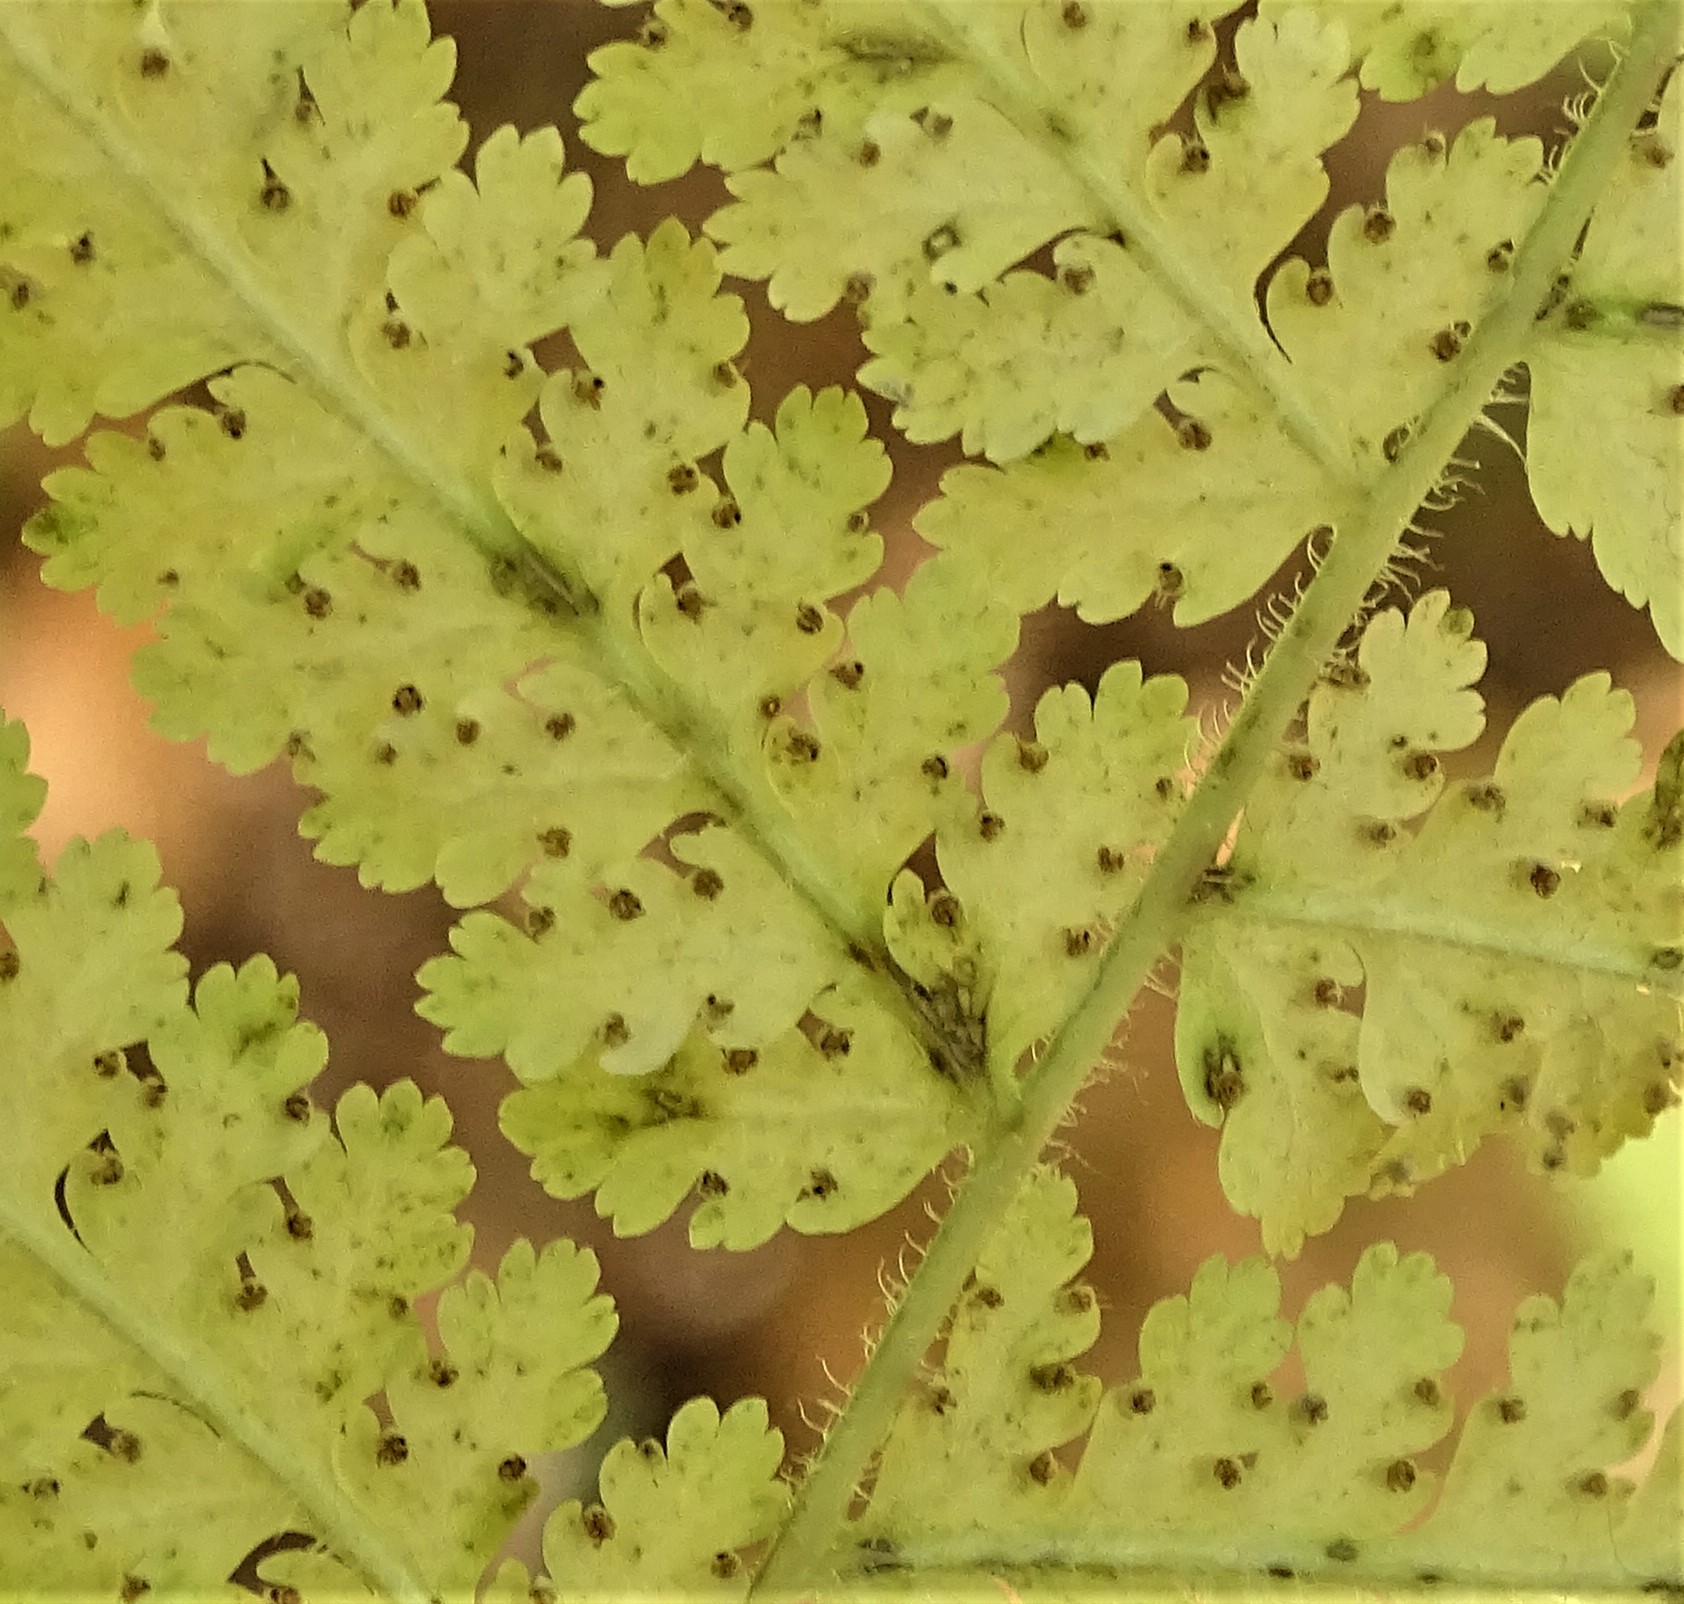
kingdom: Plantae
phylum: Tracheophyta
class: Polypodiopsida
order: Polypodiales
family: Dennstaedtiaceae
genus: Sitobolium
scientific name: Sitobolium punctilobum
